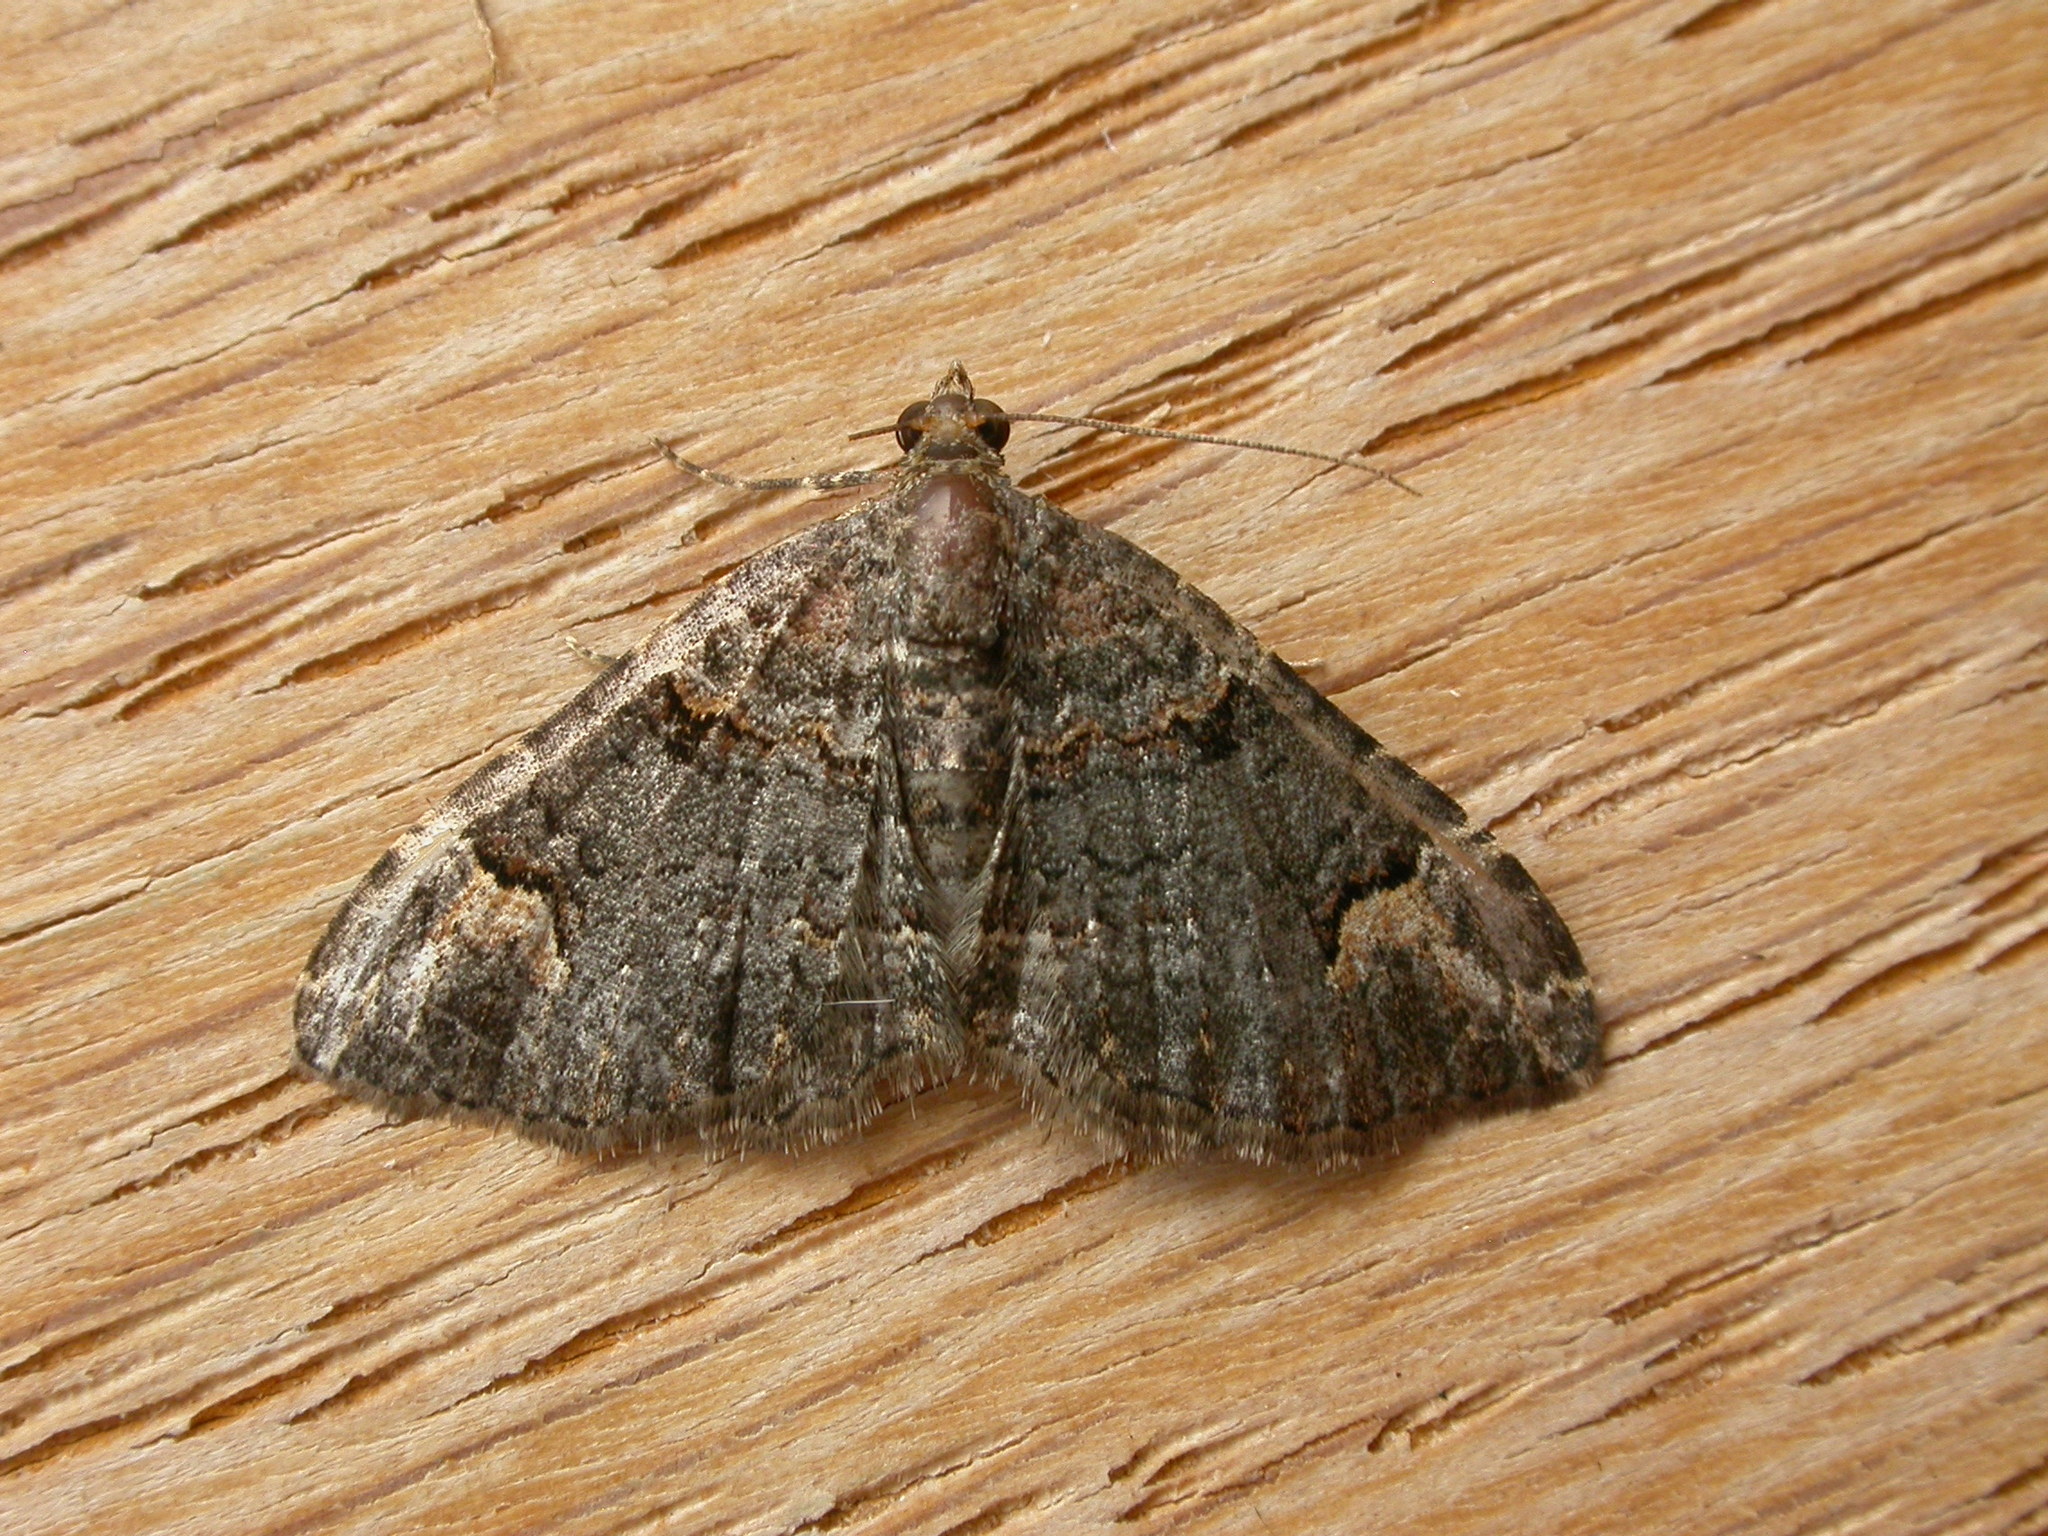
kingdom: Animalia
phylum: Arthropoda
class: Insecta
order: Lepidoptera
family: Geometridae
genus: Epyaxa
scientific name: Epyaxa sodaliata
